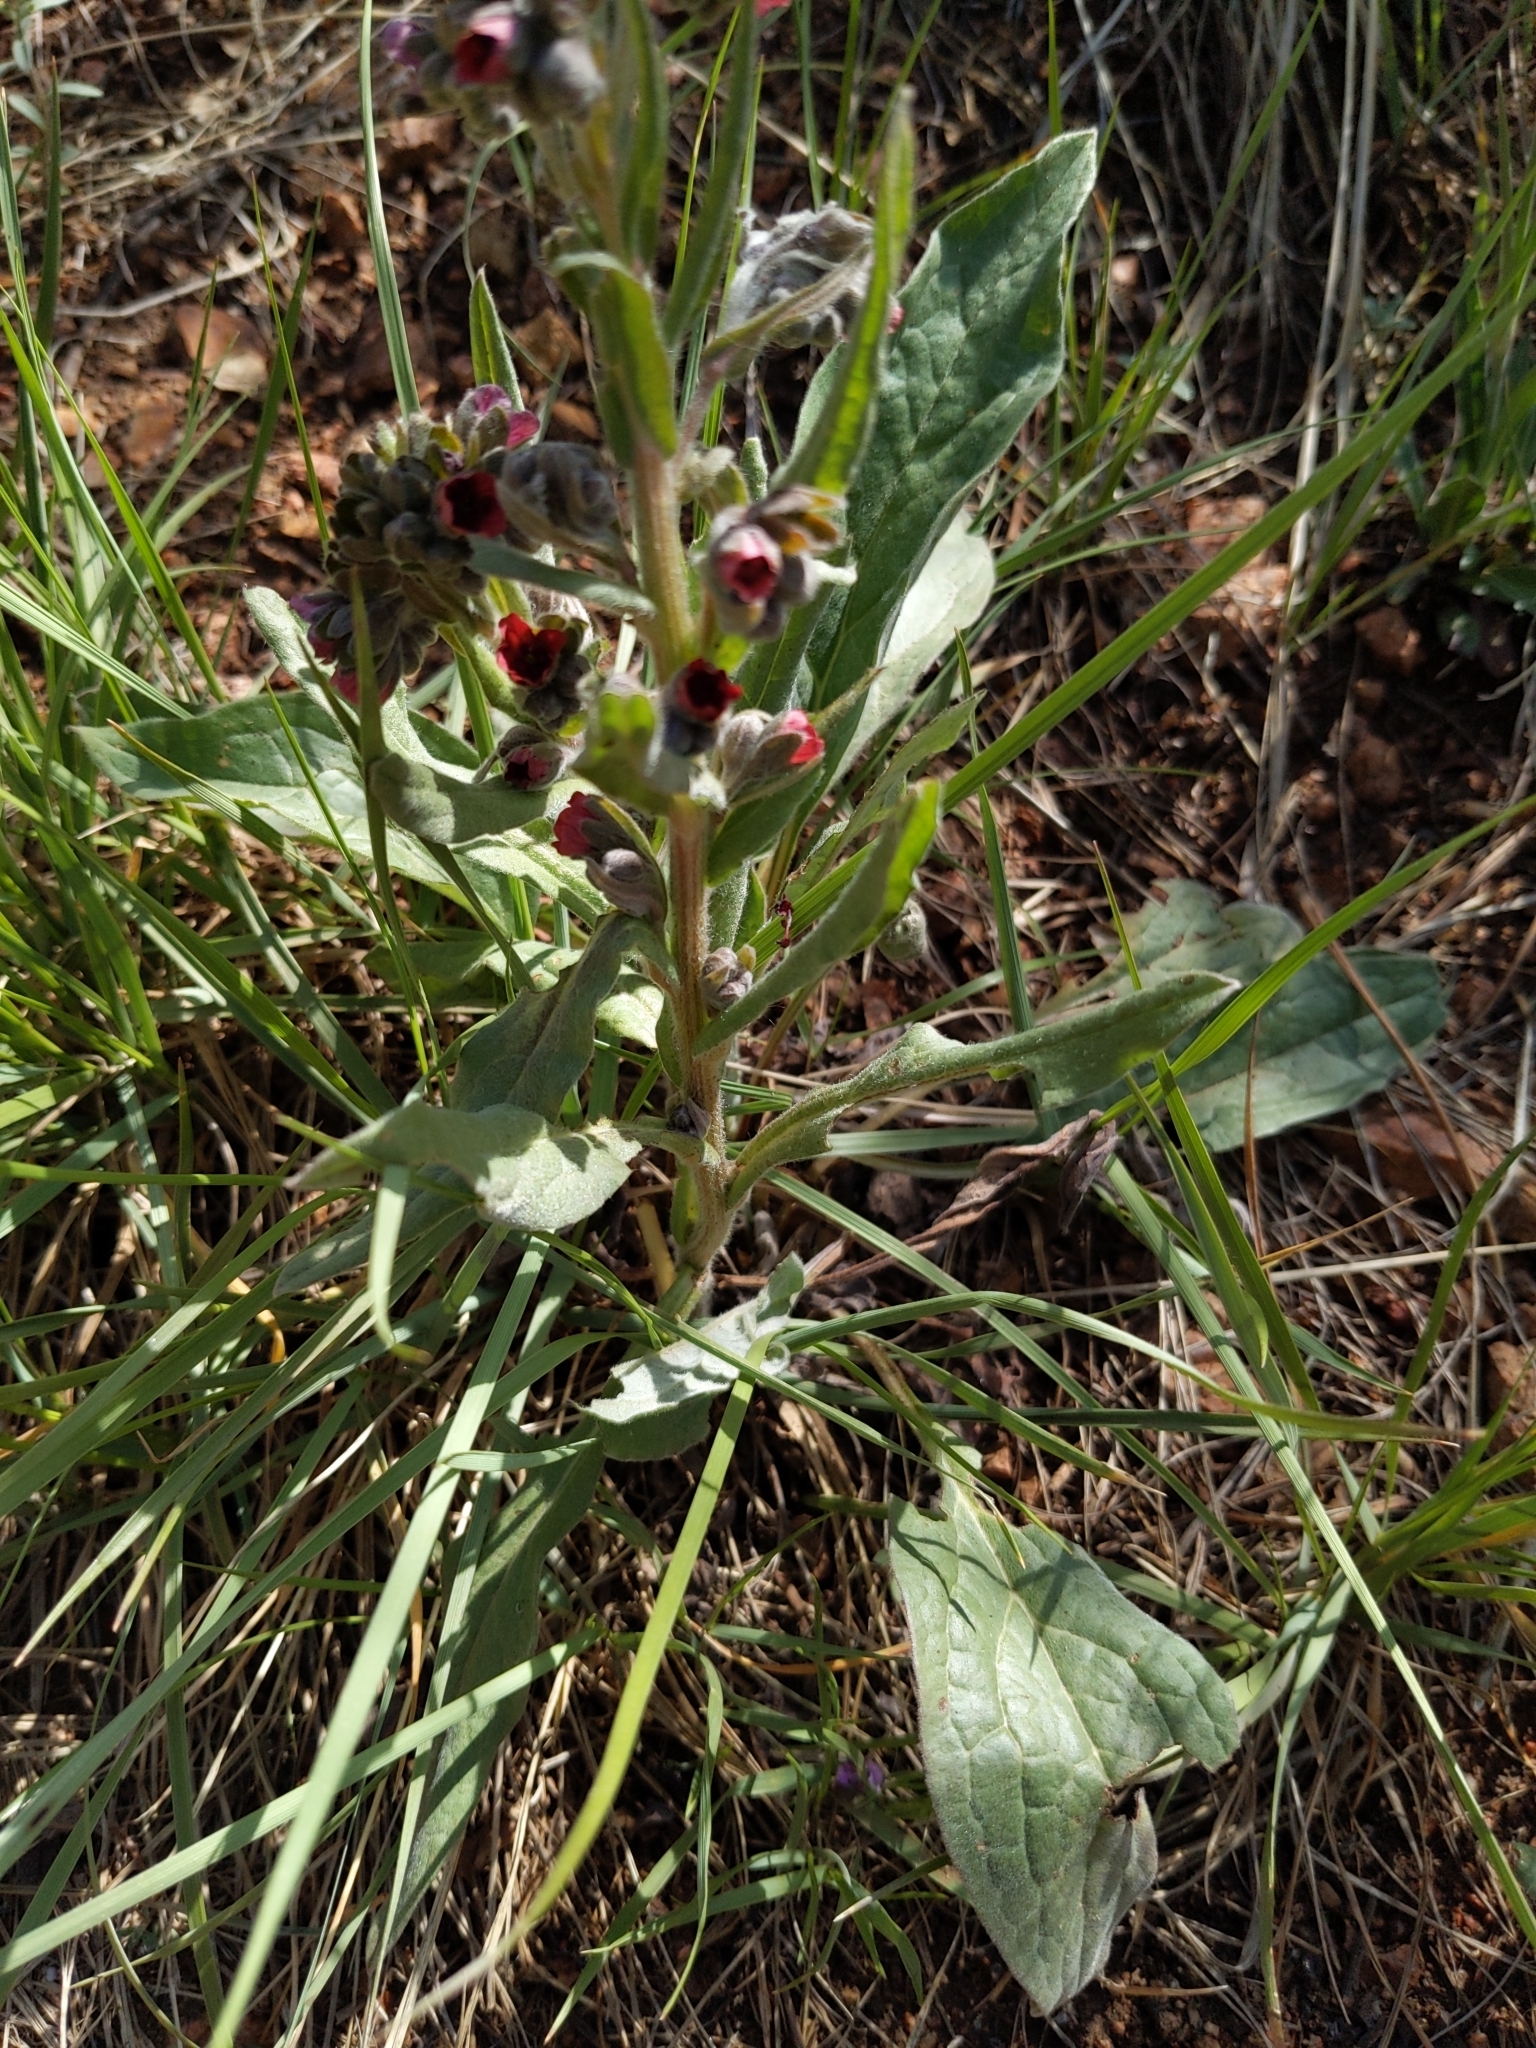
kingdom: Plantae
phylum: Tracheophyta
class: Magnoliopsida
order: Boraginales
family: Boraginaceae
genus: Cynoglossum
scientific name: Cynoglossum officinale
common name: Hound's-tongue
